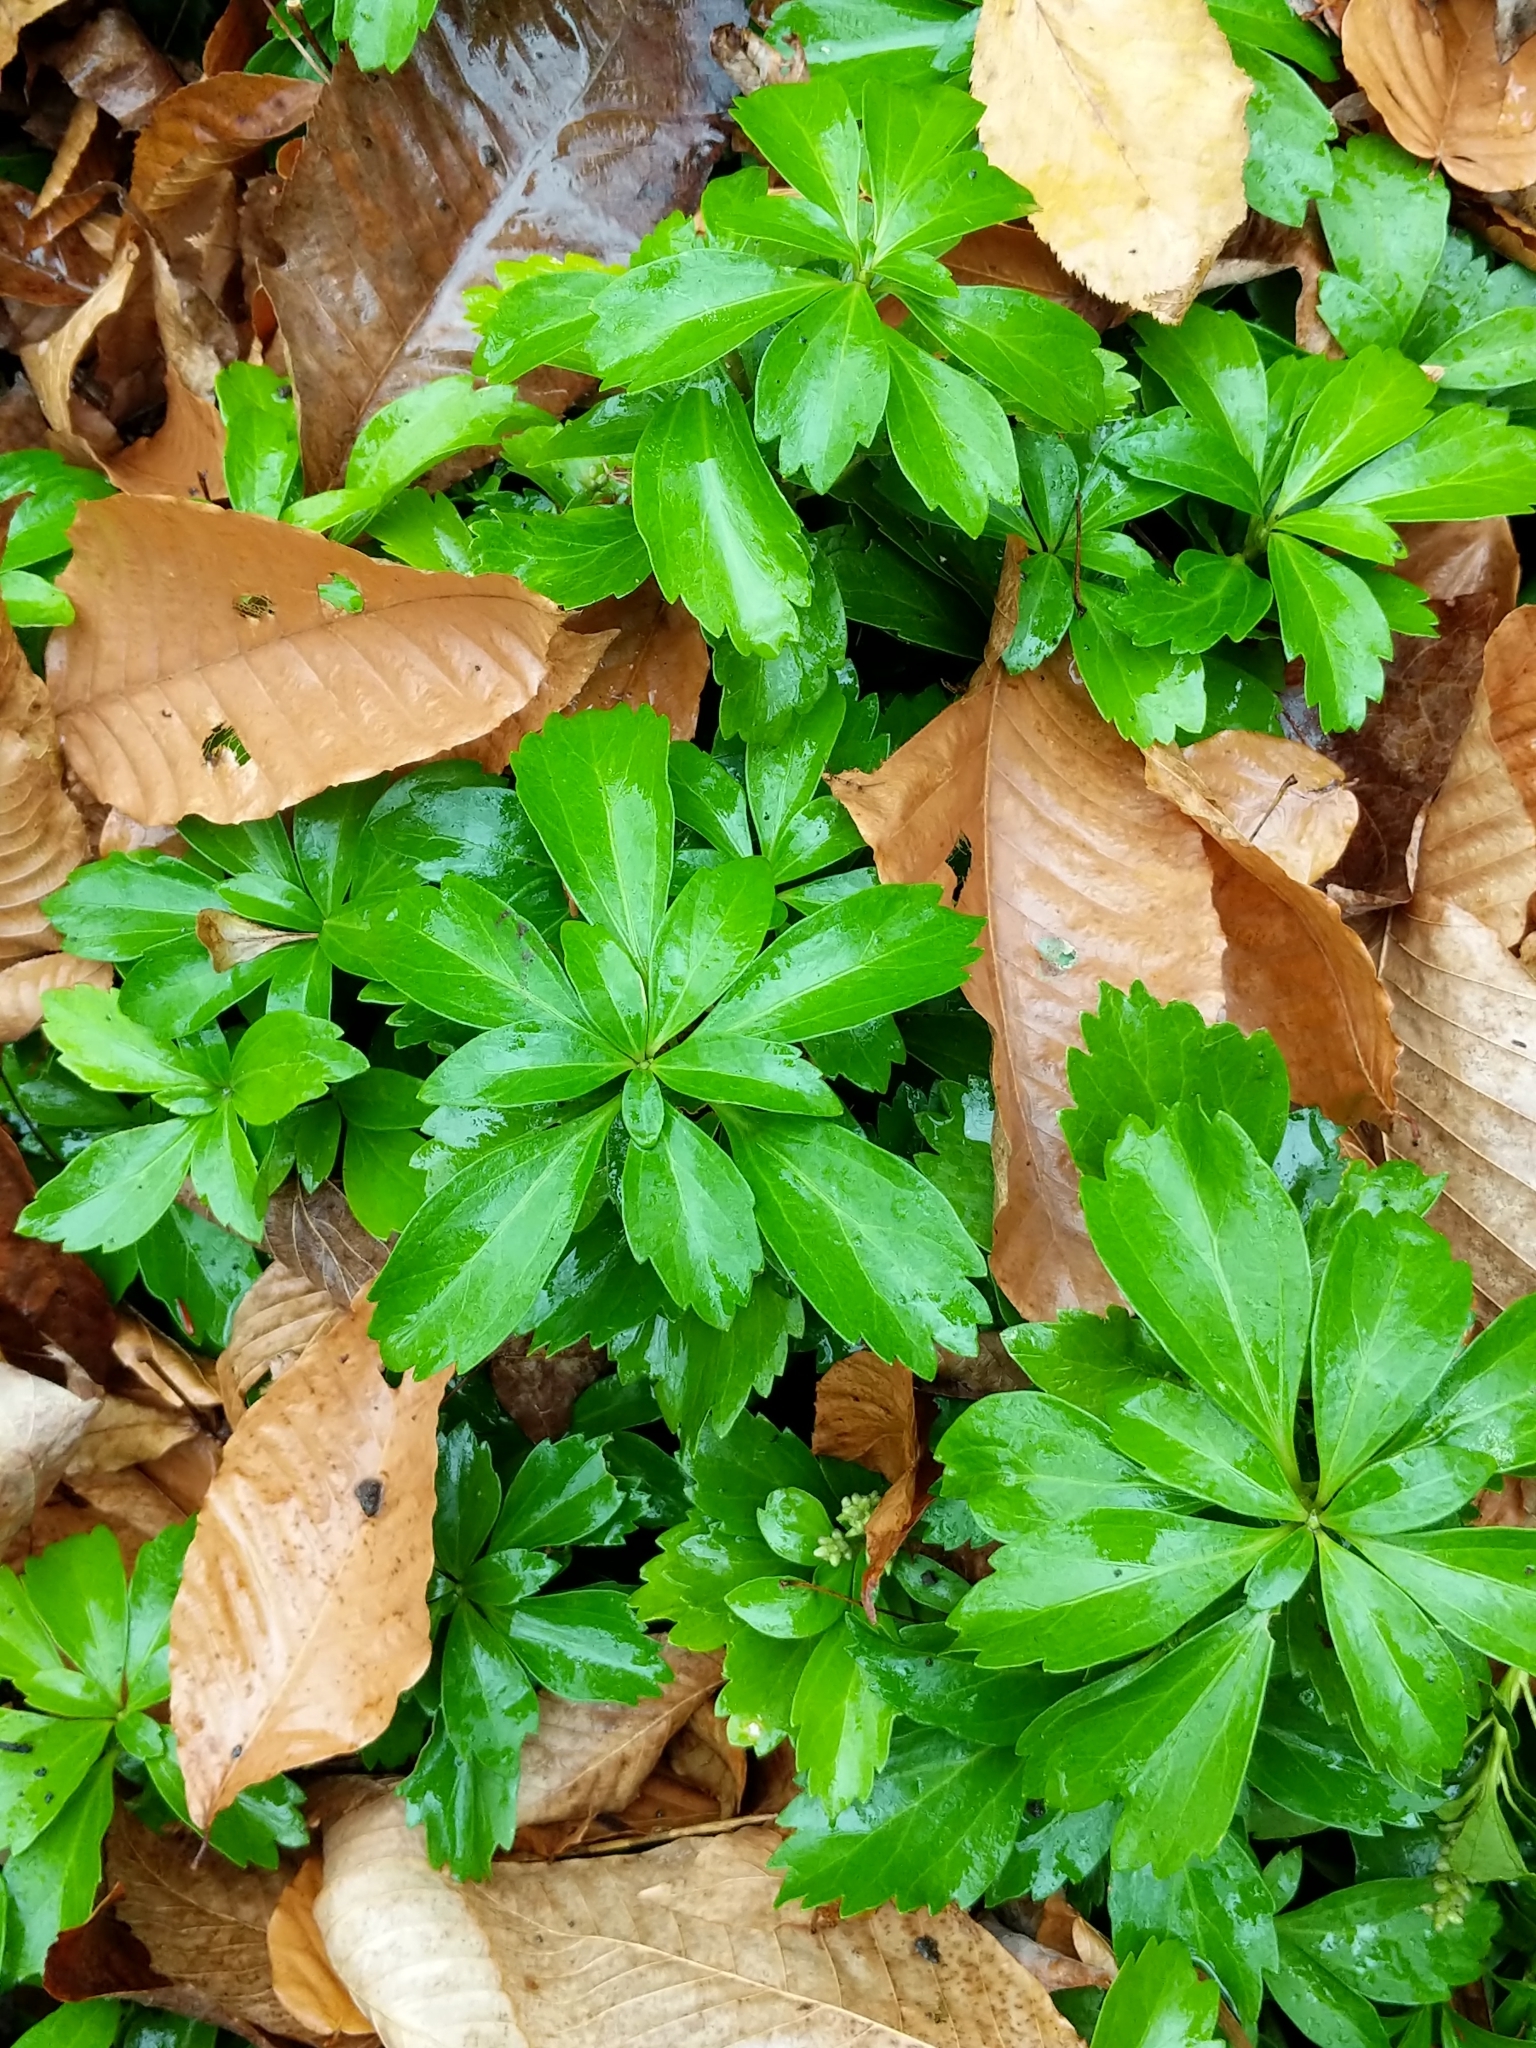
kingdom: Plantae
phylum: Tracheophyta
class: Magnoliopsida
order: Buxales
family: Buxaceae
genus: Pachysandra
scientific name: Pachysandra terminalis
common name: Japanese pachysandra
